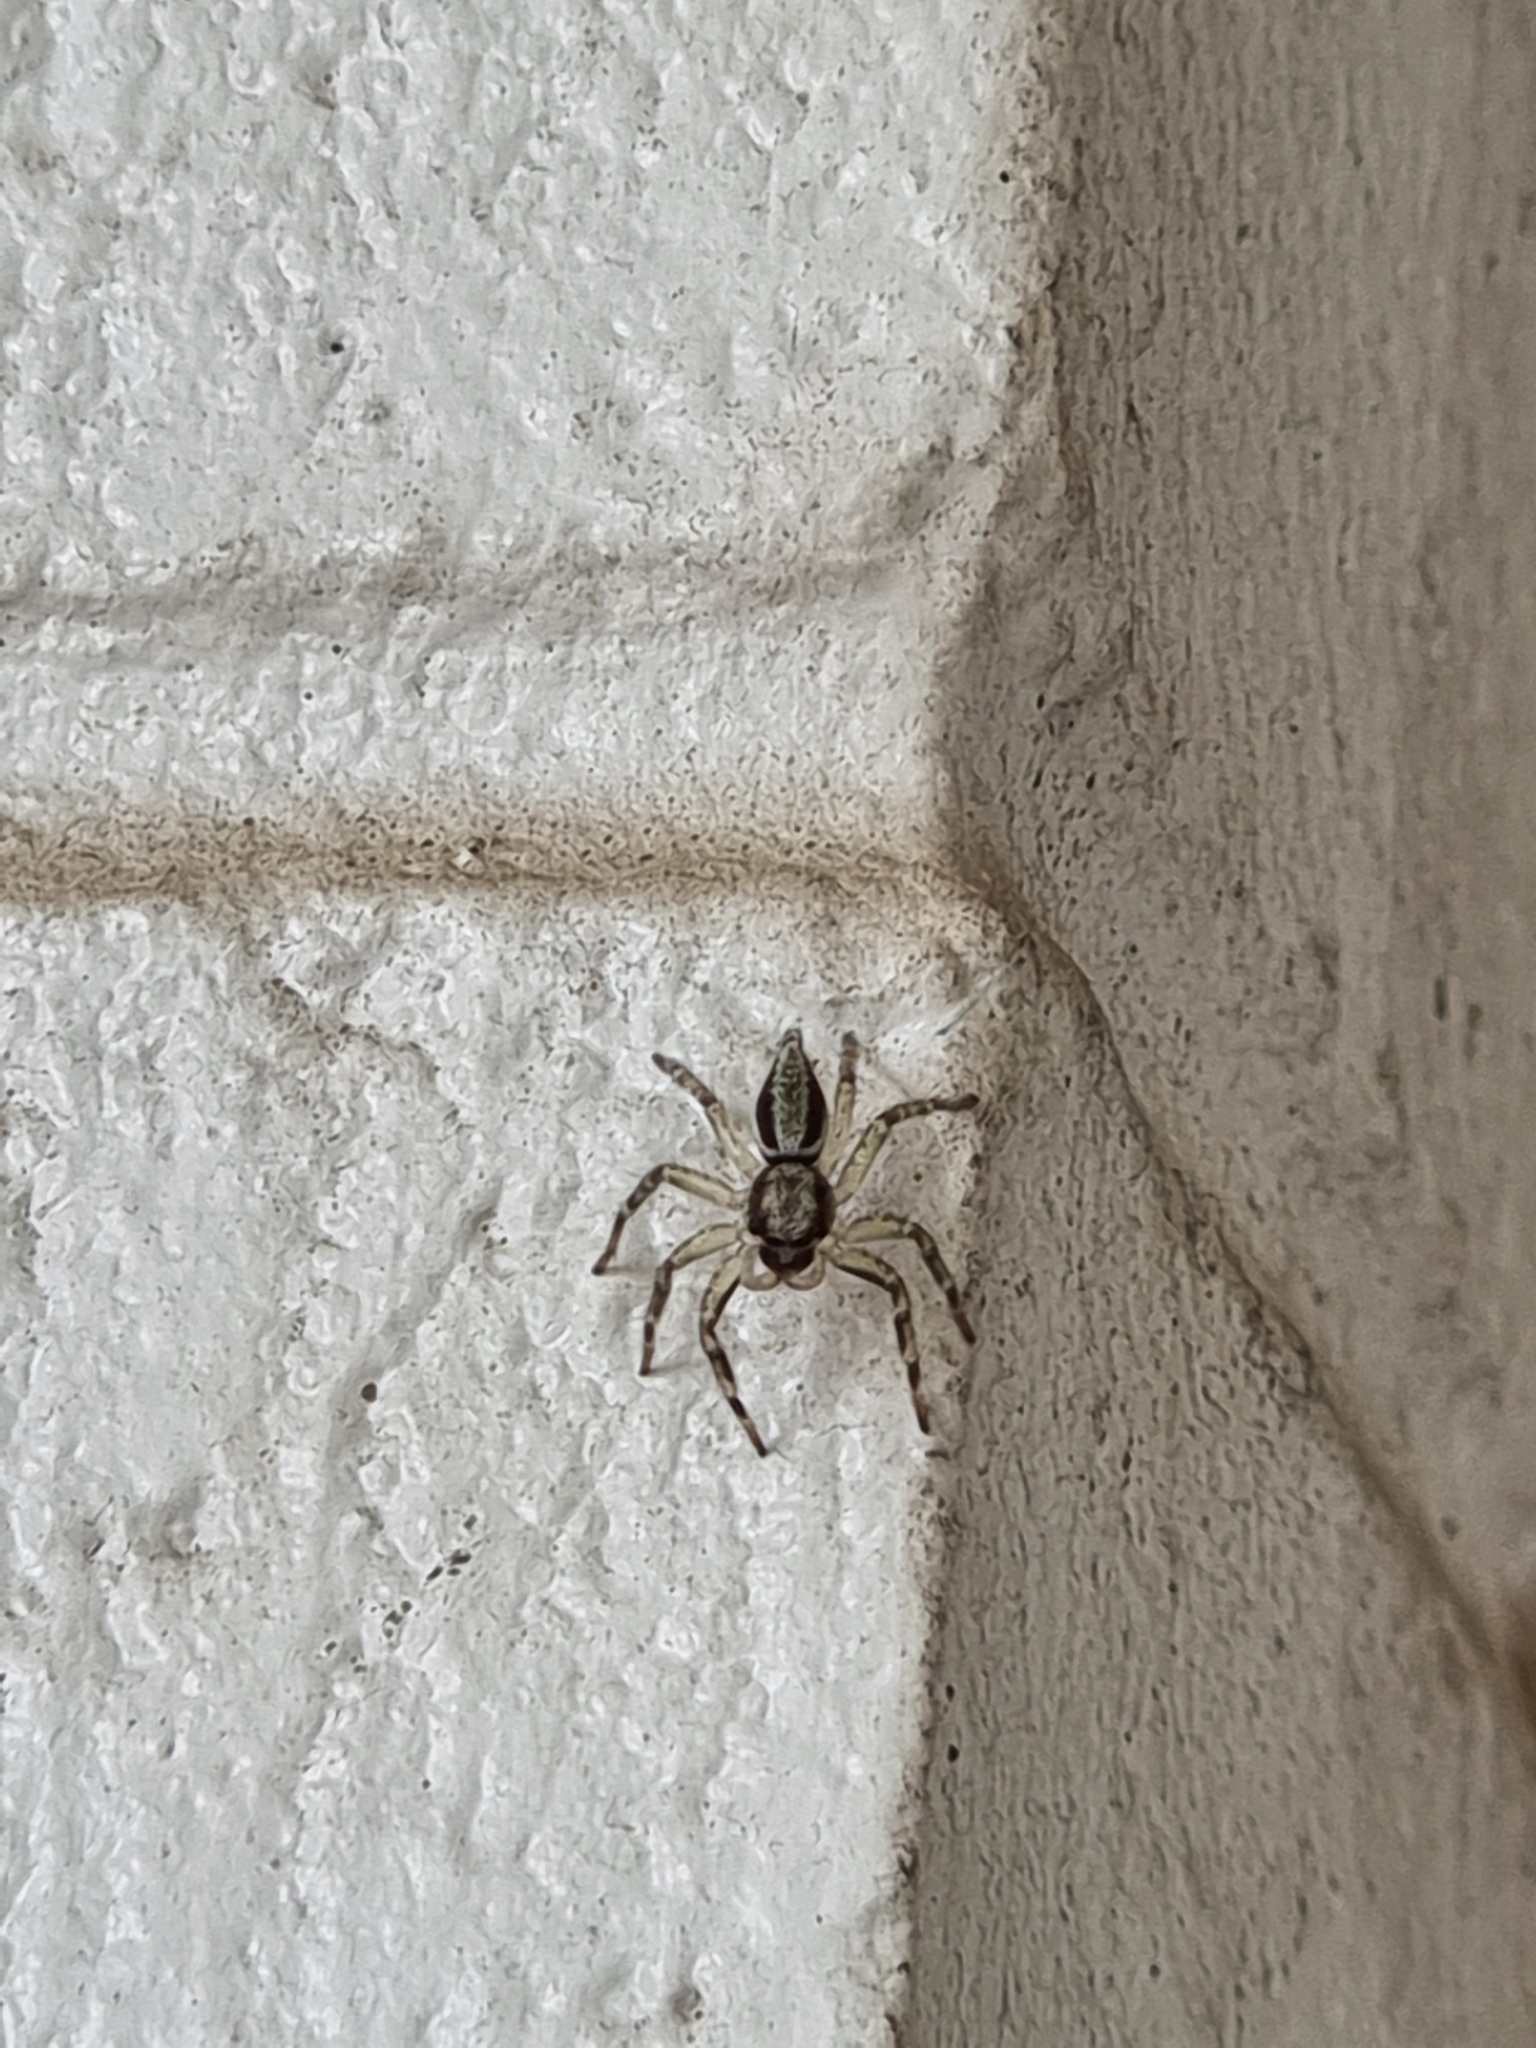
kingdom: Animalia
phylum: Arthropoda
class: Arachnida
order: Araneae
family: Salticidae
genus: Zenodorus
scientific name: Zenodorus swiftorum
